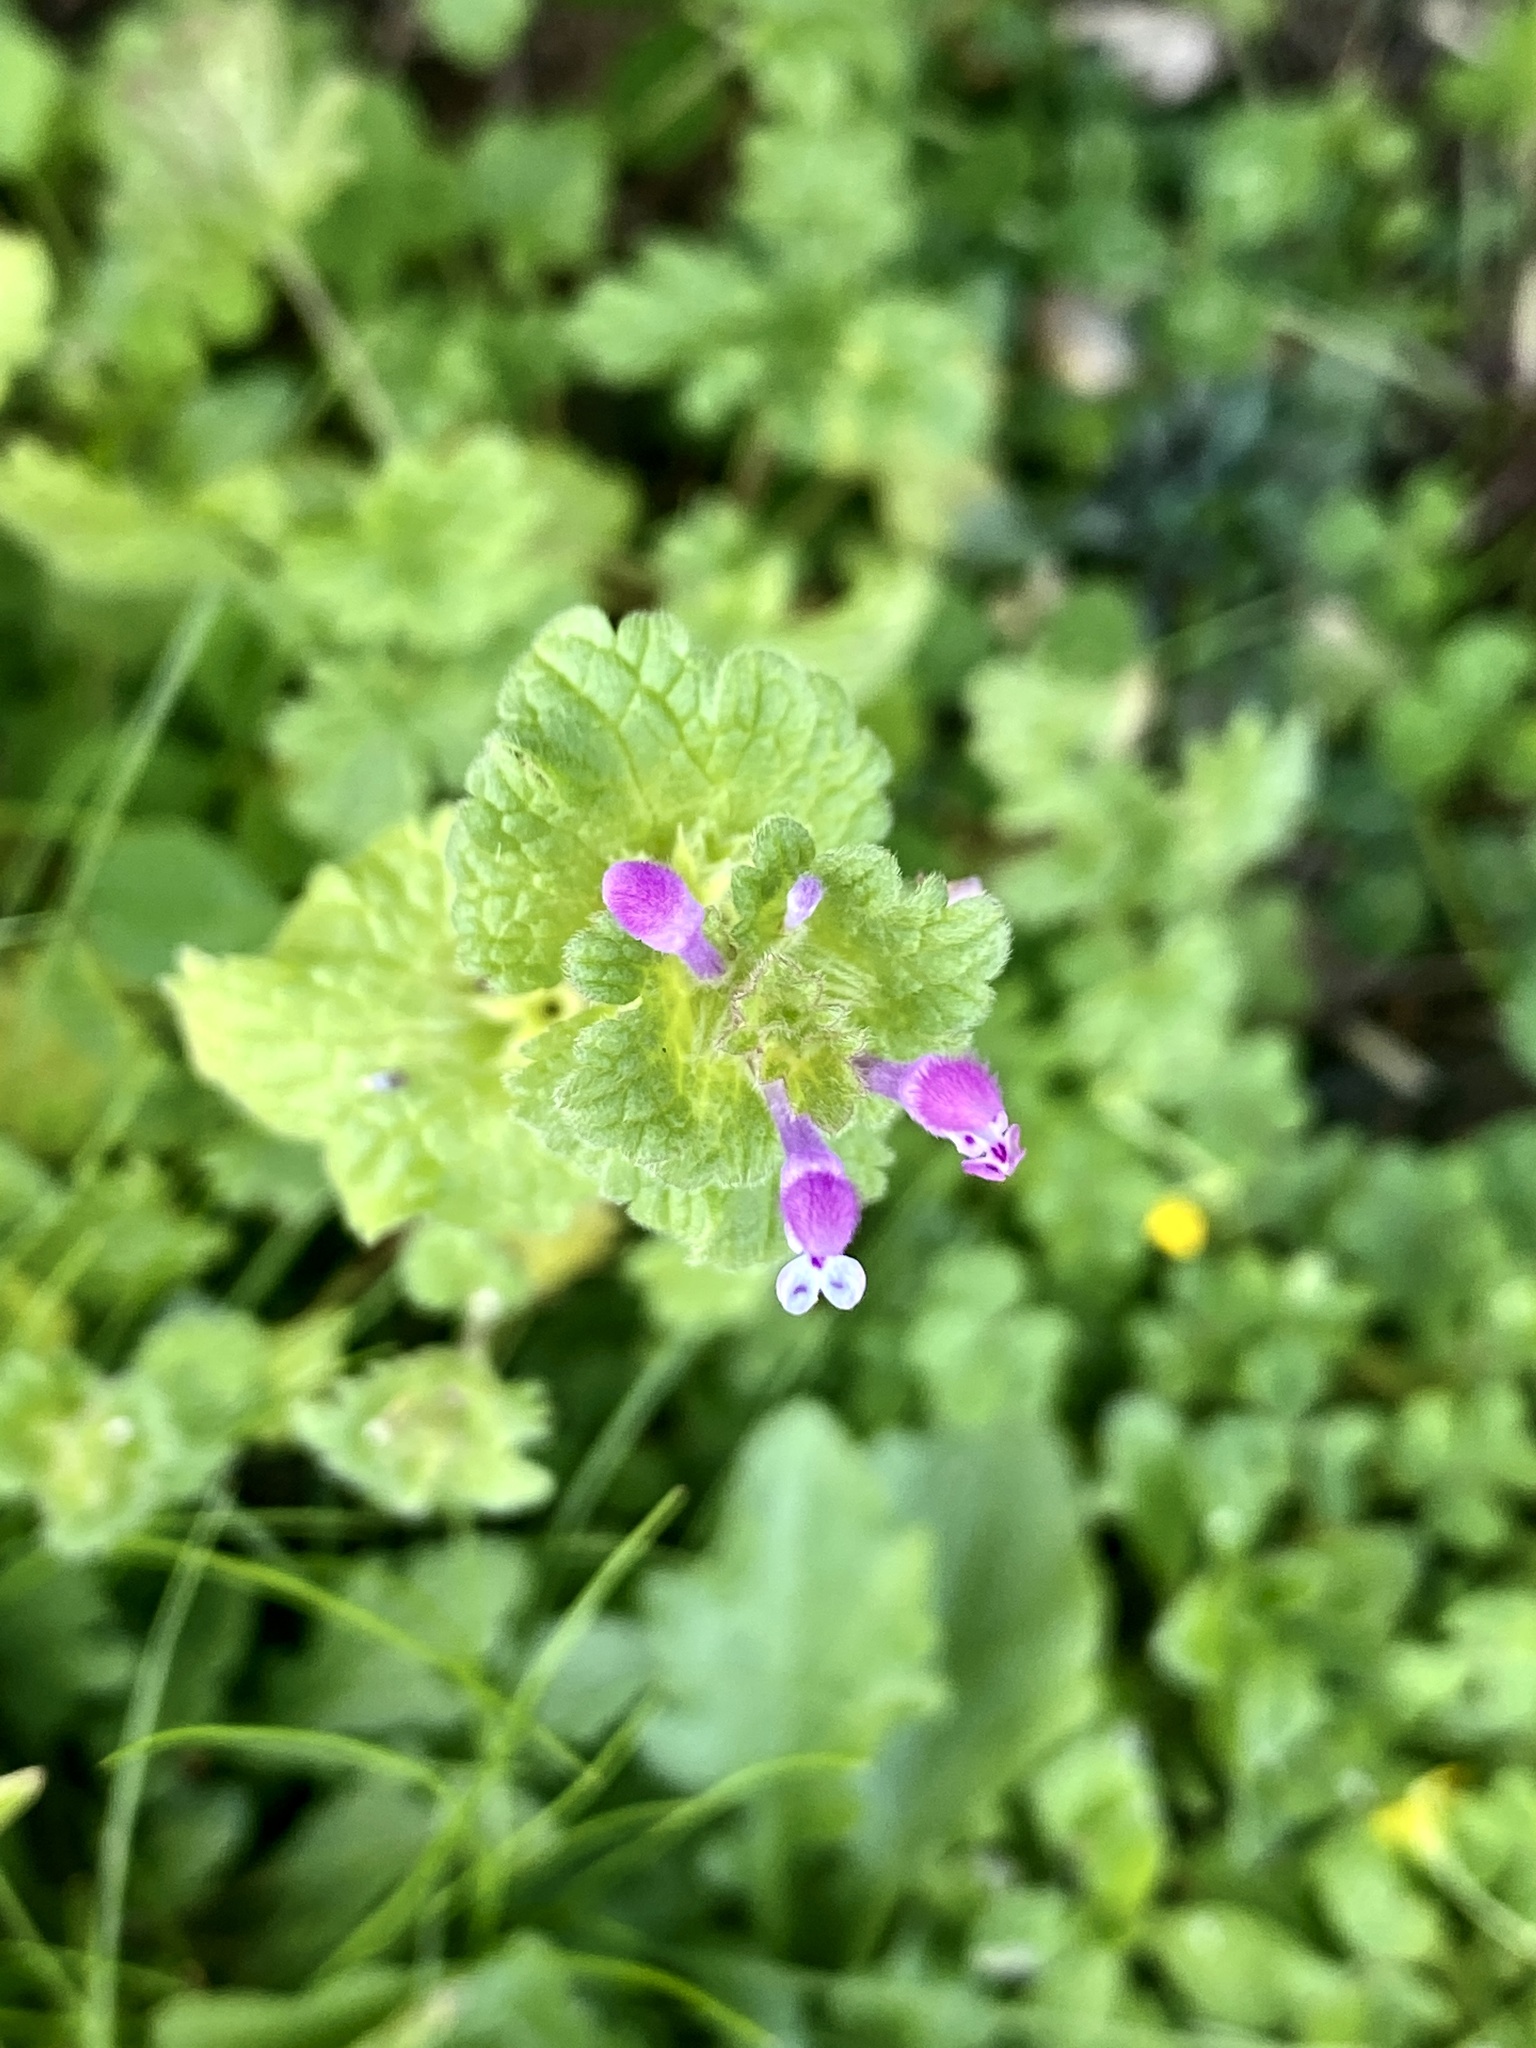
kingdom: Plantae
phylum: Tracheophyta
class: Magnoliopsida
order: Lamiales
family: Lamiaceae
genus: Lamium
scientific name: Lamium amplexicaule
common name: Henbit dead-nettle
